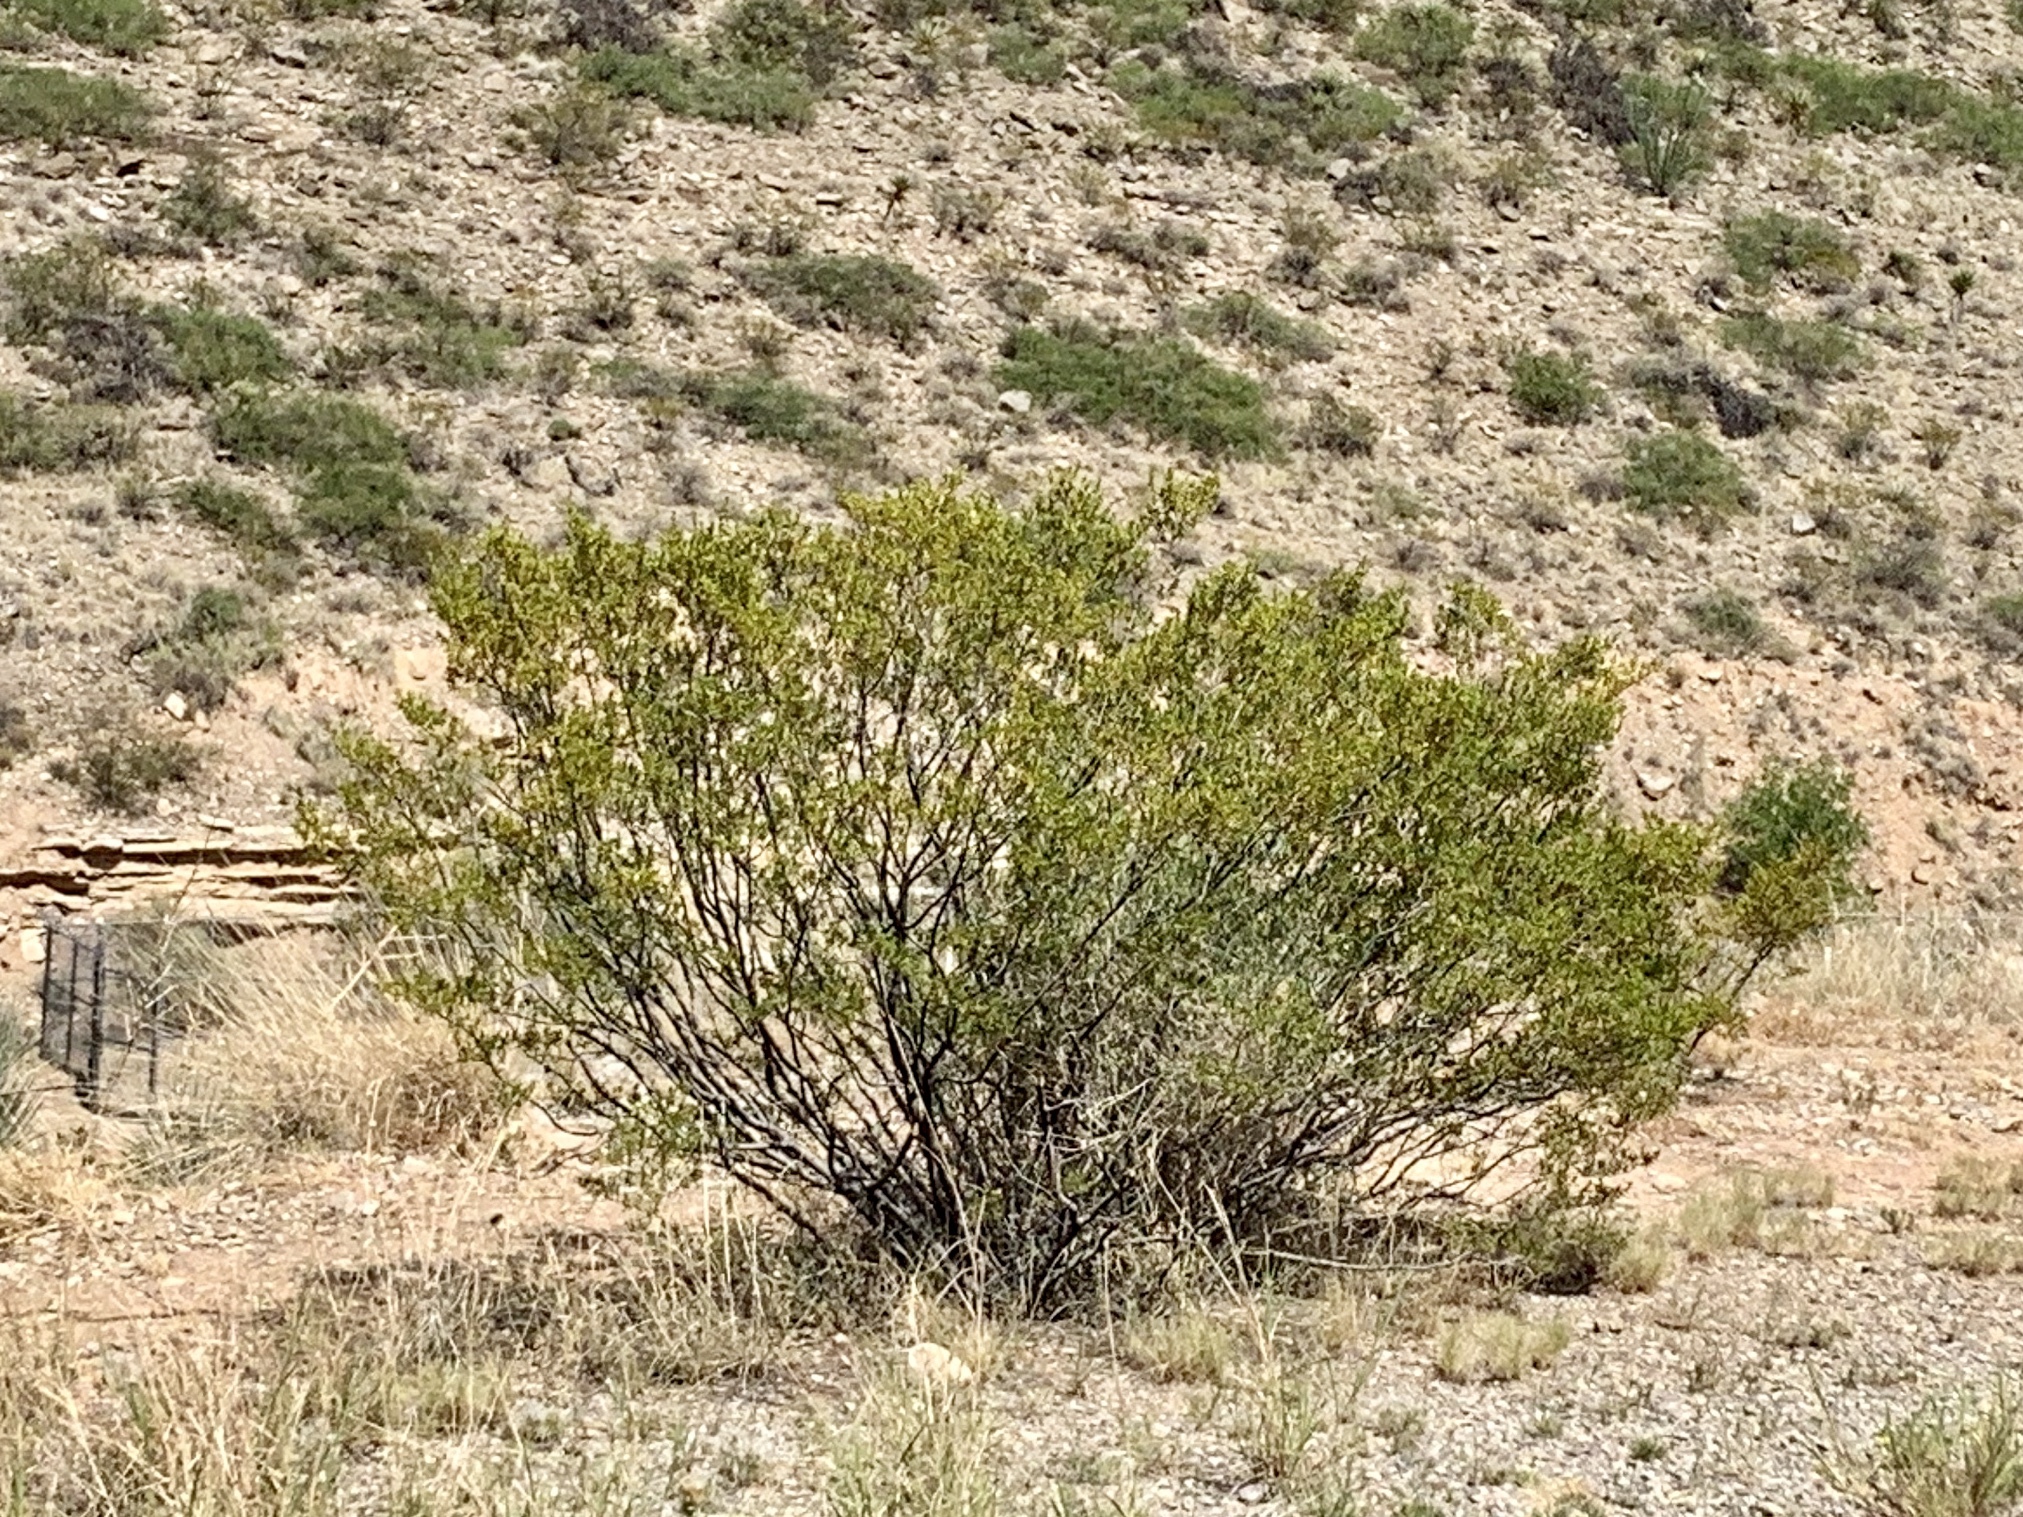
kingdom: Plantae
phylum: Tracheophyta
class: Magnoliopsida
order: Zygophyllales
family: Zygophyllaceae
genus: Larrea
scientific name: Larrea tridentata
